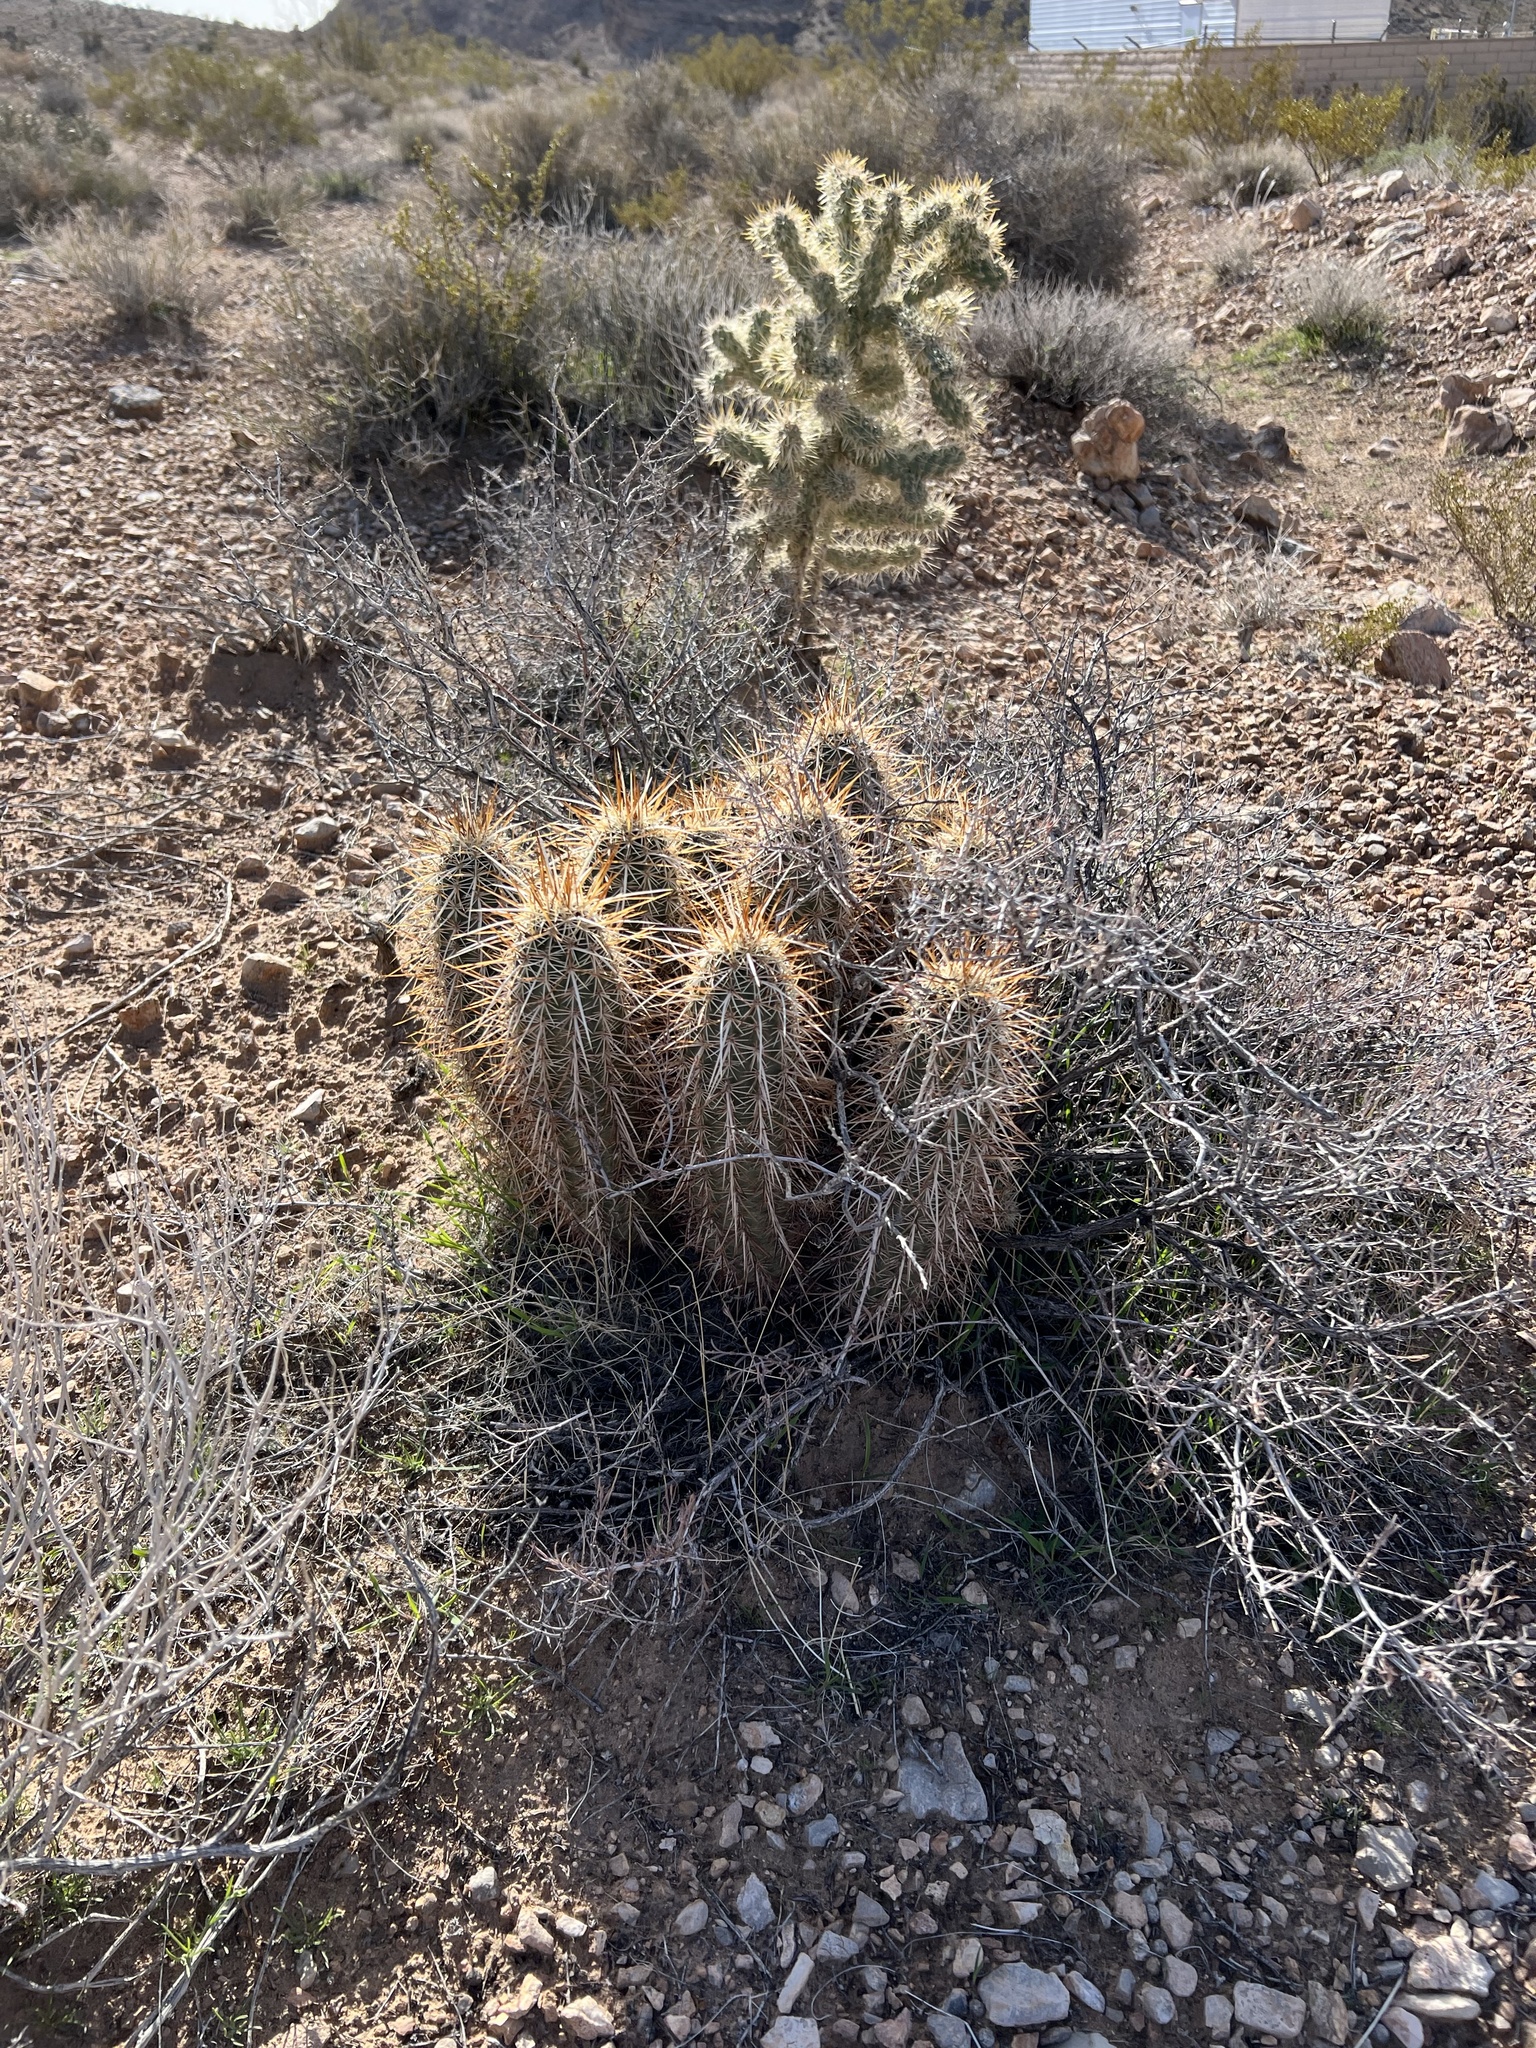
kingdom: Plantae
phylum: Tracheophyta
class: Magnoliopsida
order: Caryophyllales
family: Cactaceae
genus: Echinocereus
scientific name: Echinocereus engelmannii
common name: Engelmann's hedgehog cactus
